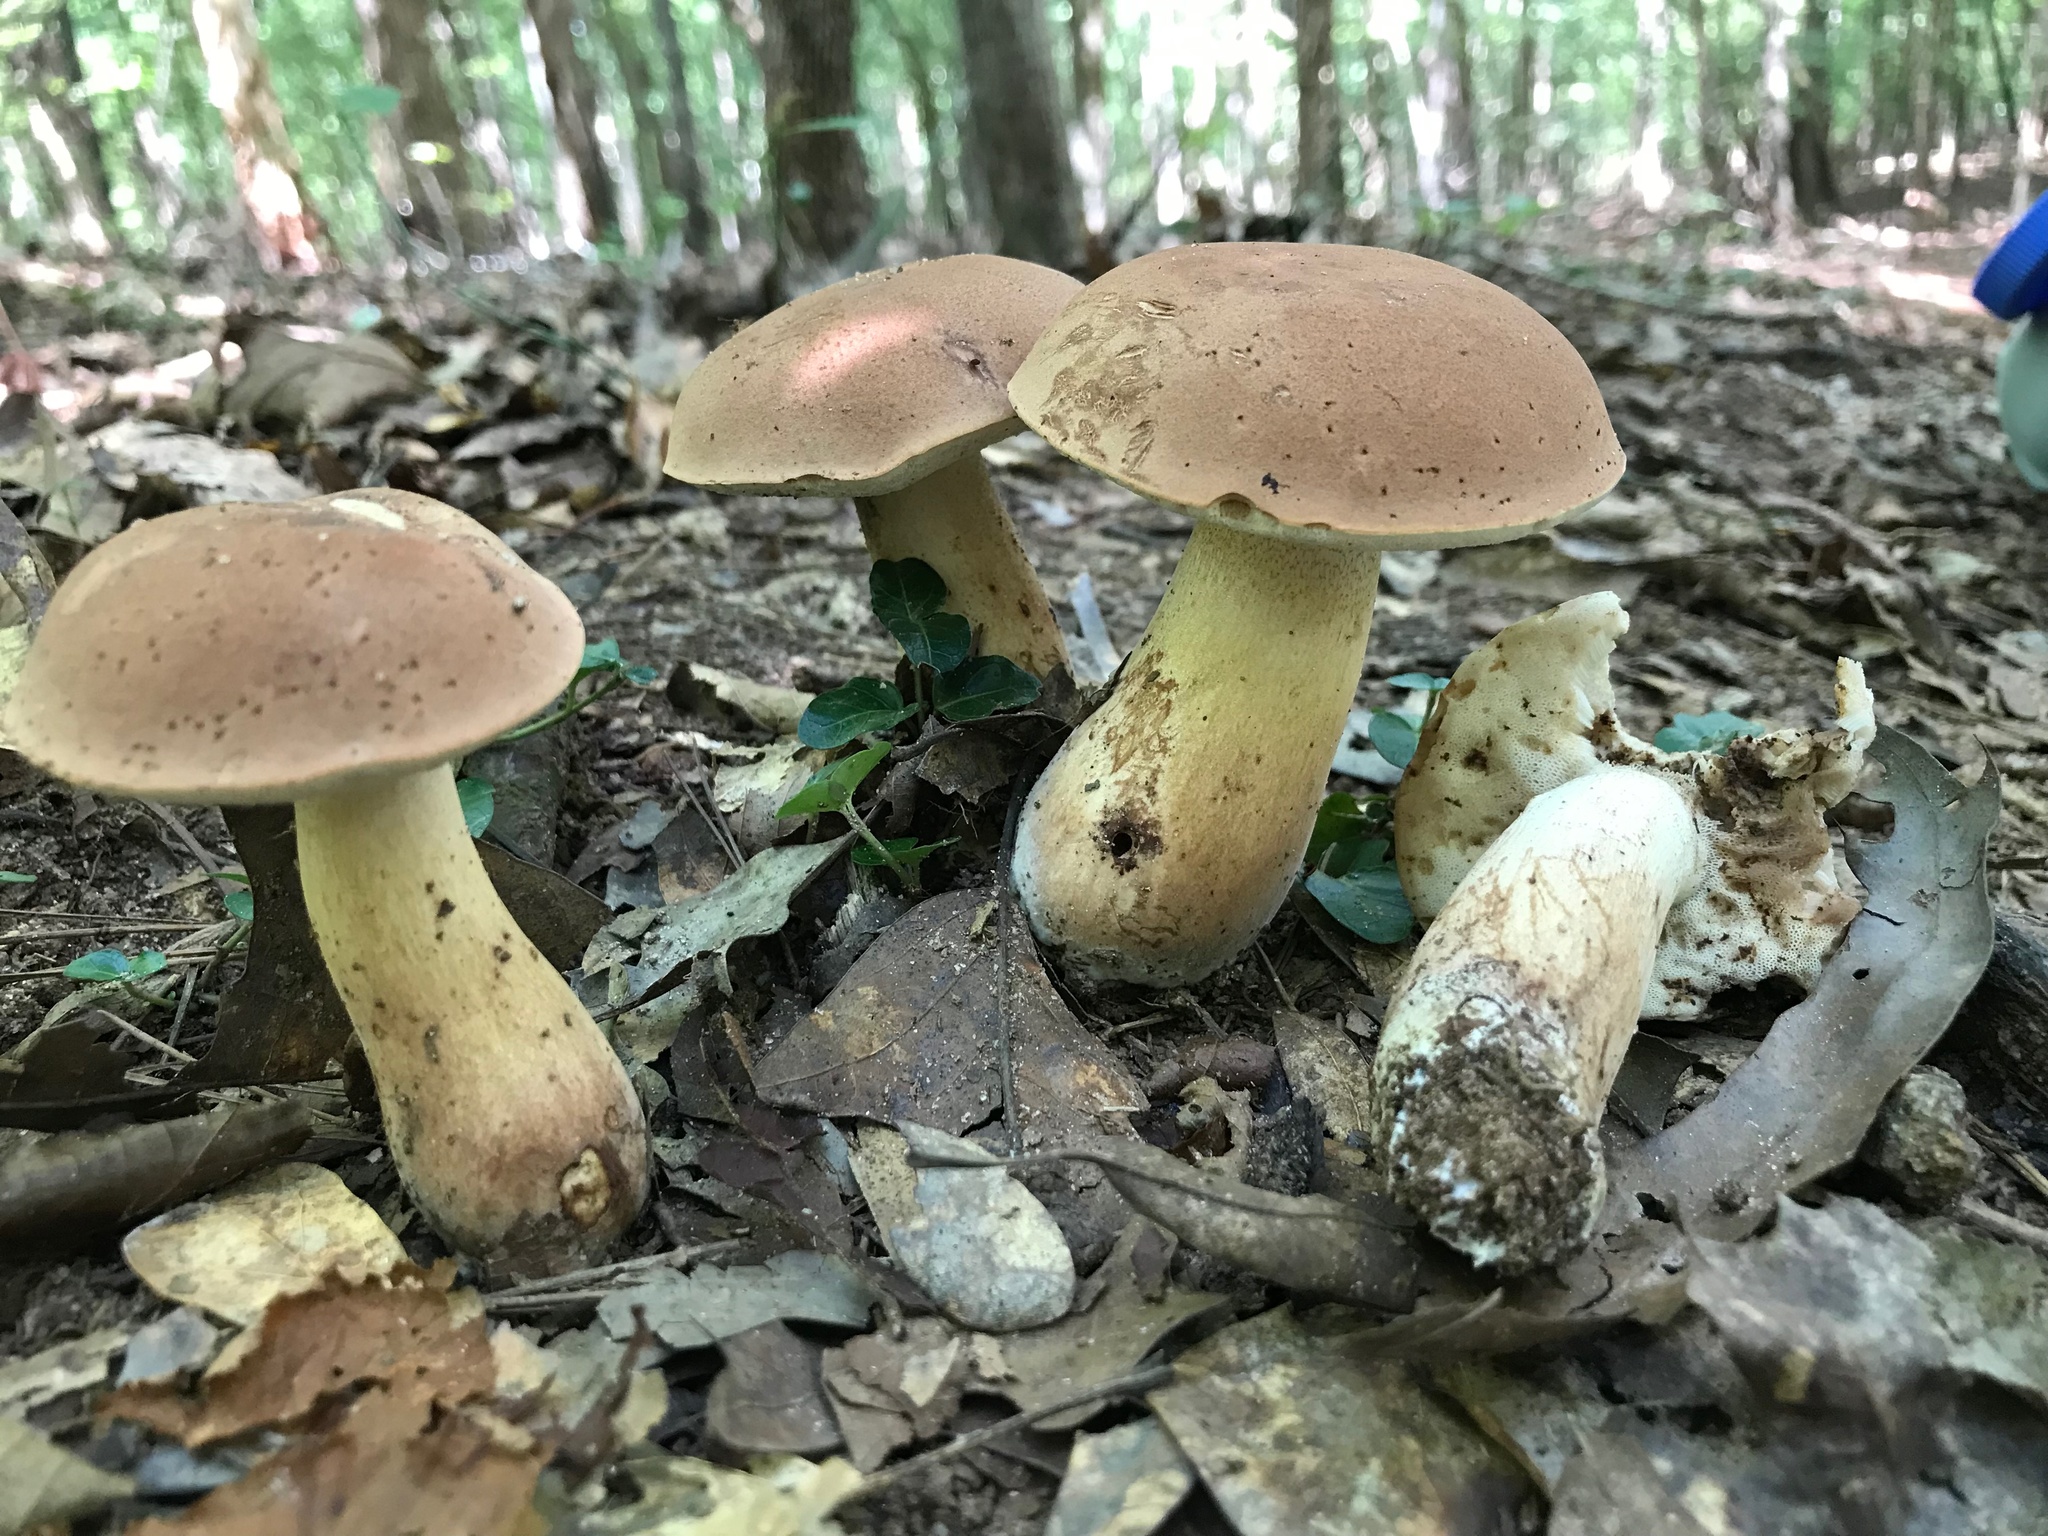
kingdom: Fungi
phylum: Basidiomycota
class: Agaricomycetes
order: Boletales
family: Boletaceae
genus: Tylopilus
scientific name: Tylopilus rubrobrunneus
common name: Reddish brown bitter bolete
